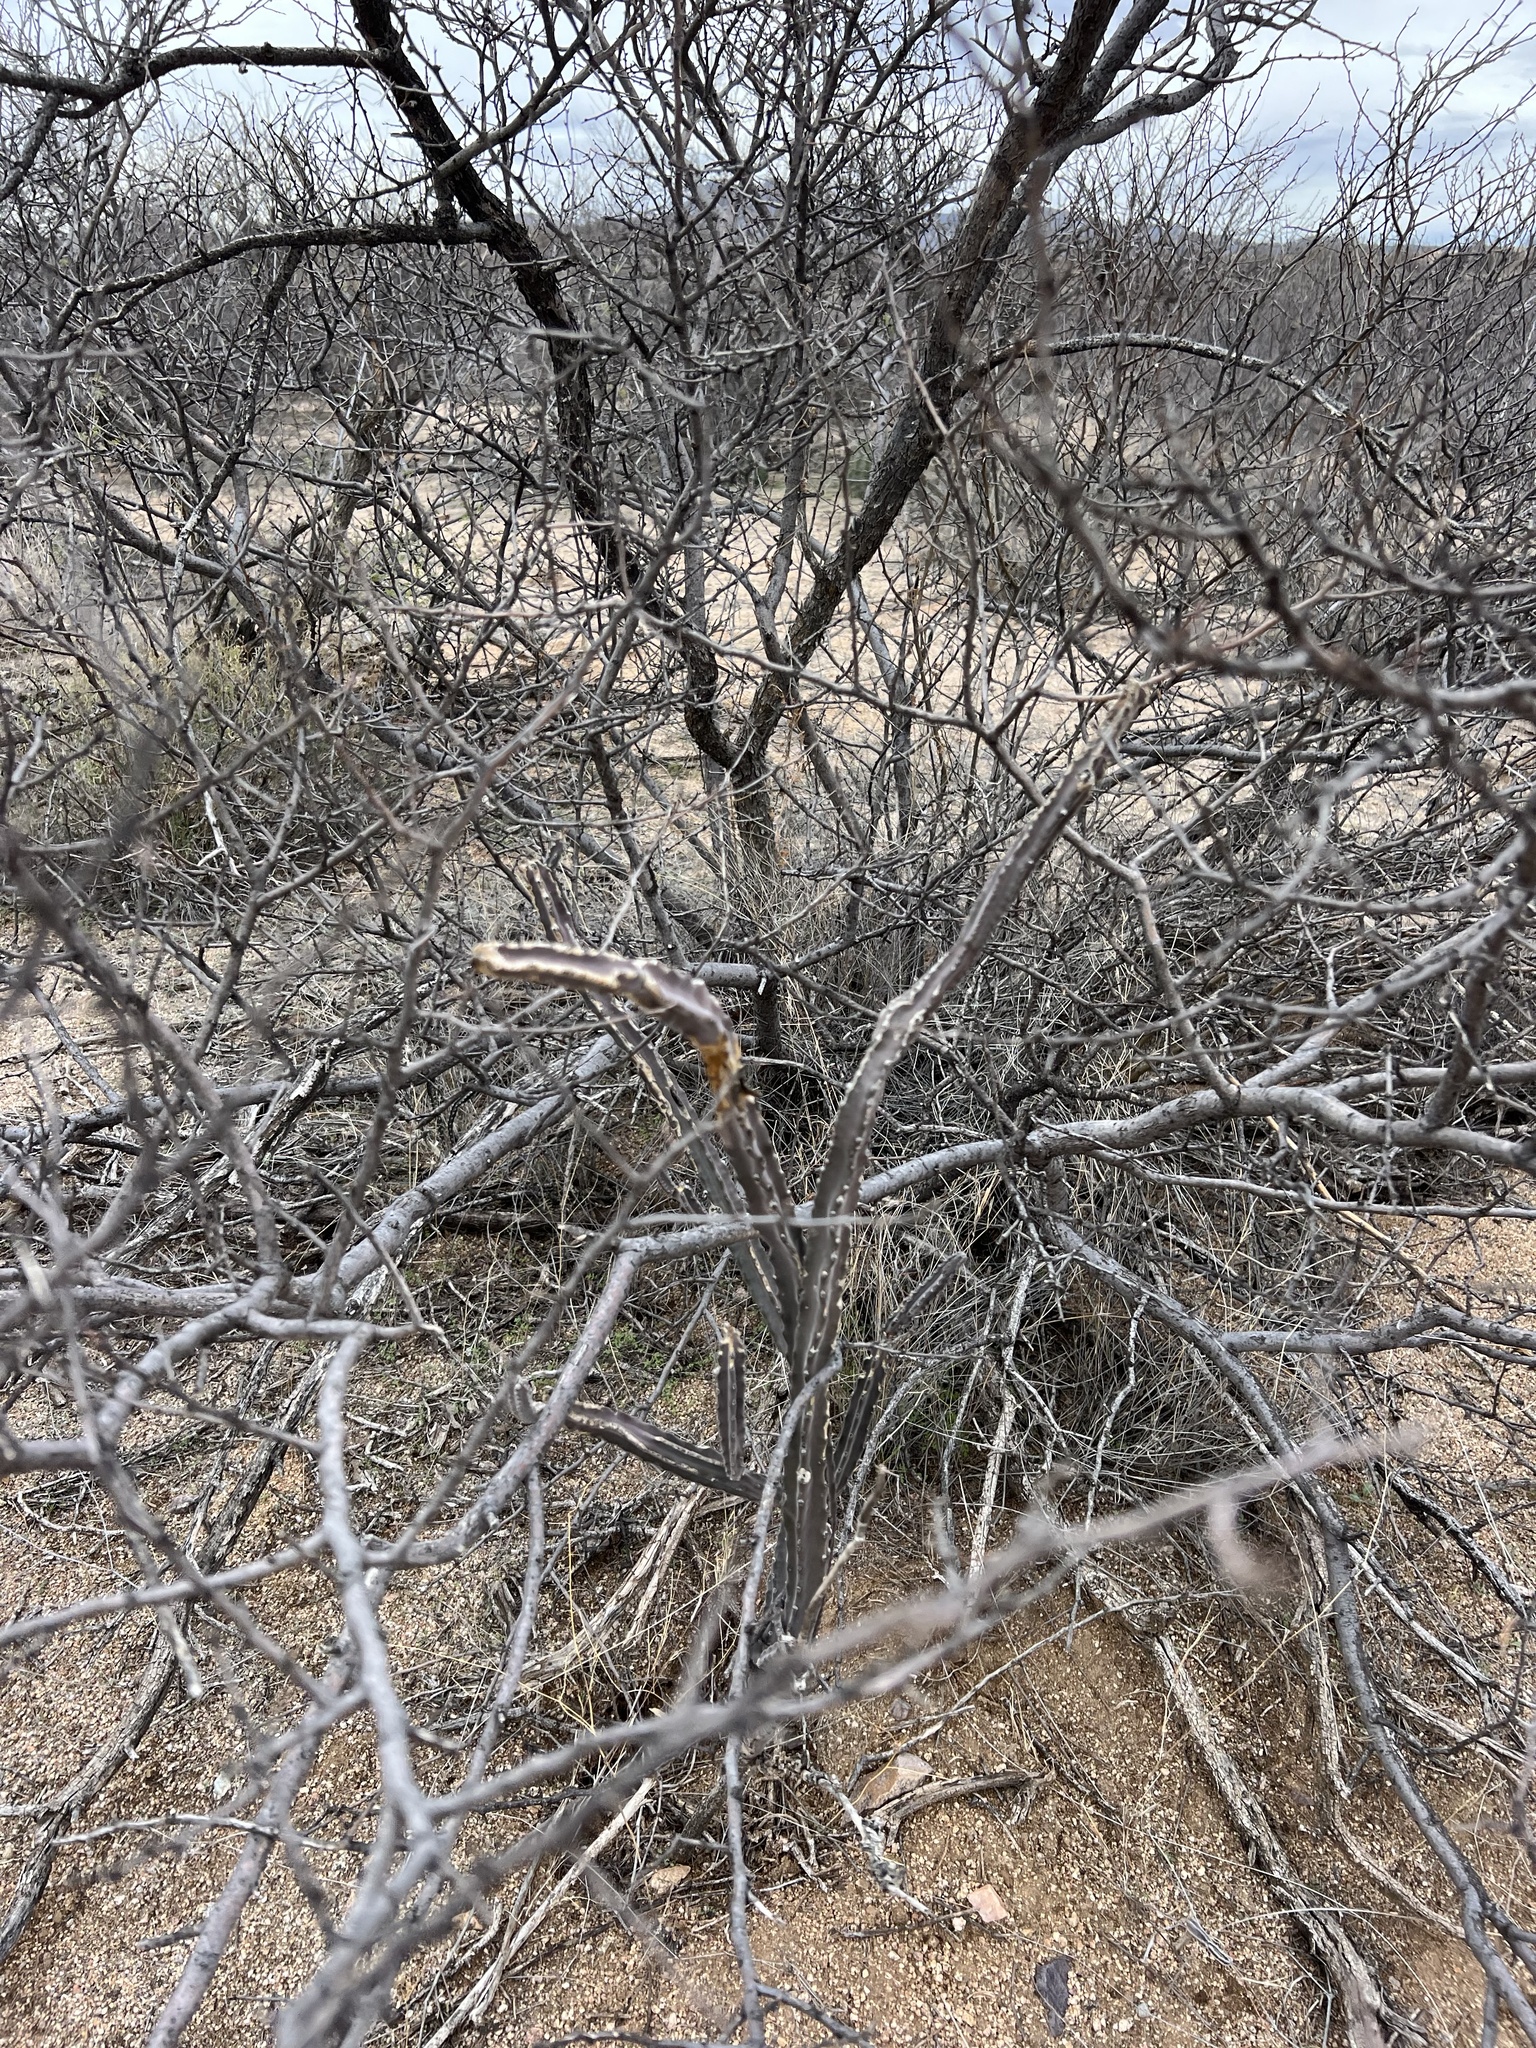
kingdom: Plantae
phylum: Tracheophyta
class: Magnoliopsida
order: Caryophyllales
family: Cactaceae
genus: Peniocereus
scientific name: Peniocereus greggii
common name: Desert night-blooming cereus
